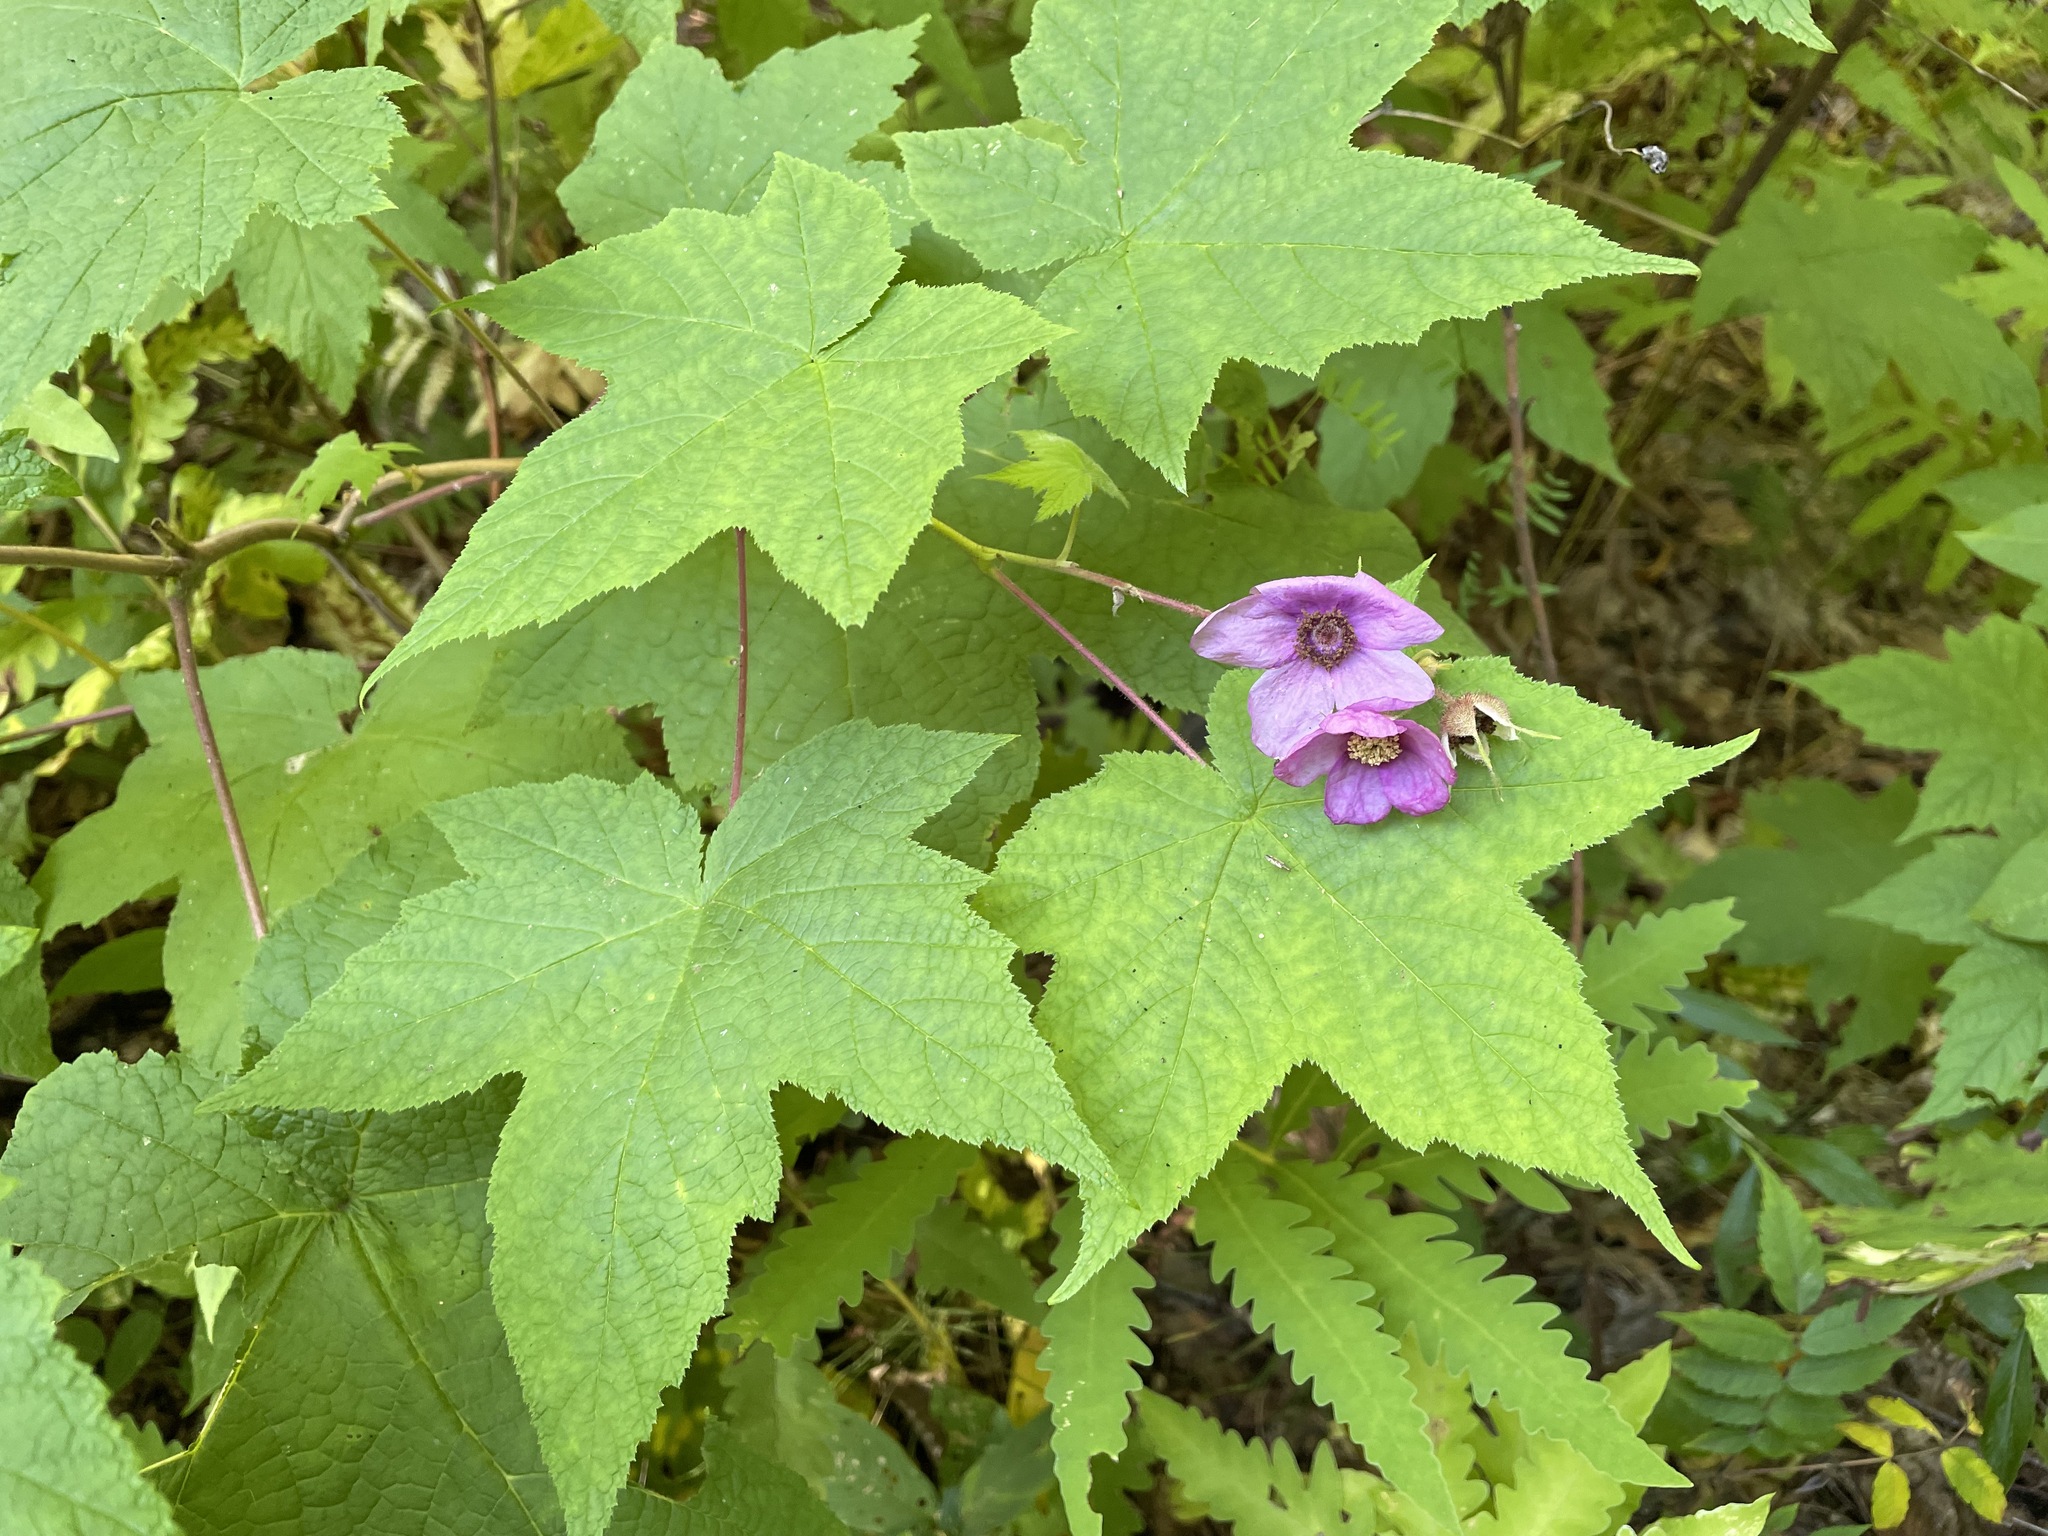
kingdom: Plantae
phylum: Tracheophyta
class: Magnoliopsida
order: Rosales
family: Rosaceae
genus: Rubus
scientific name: Rubus odoratus
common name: Purple-flowered raspberry
